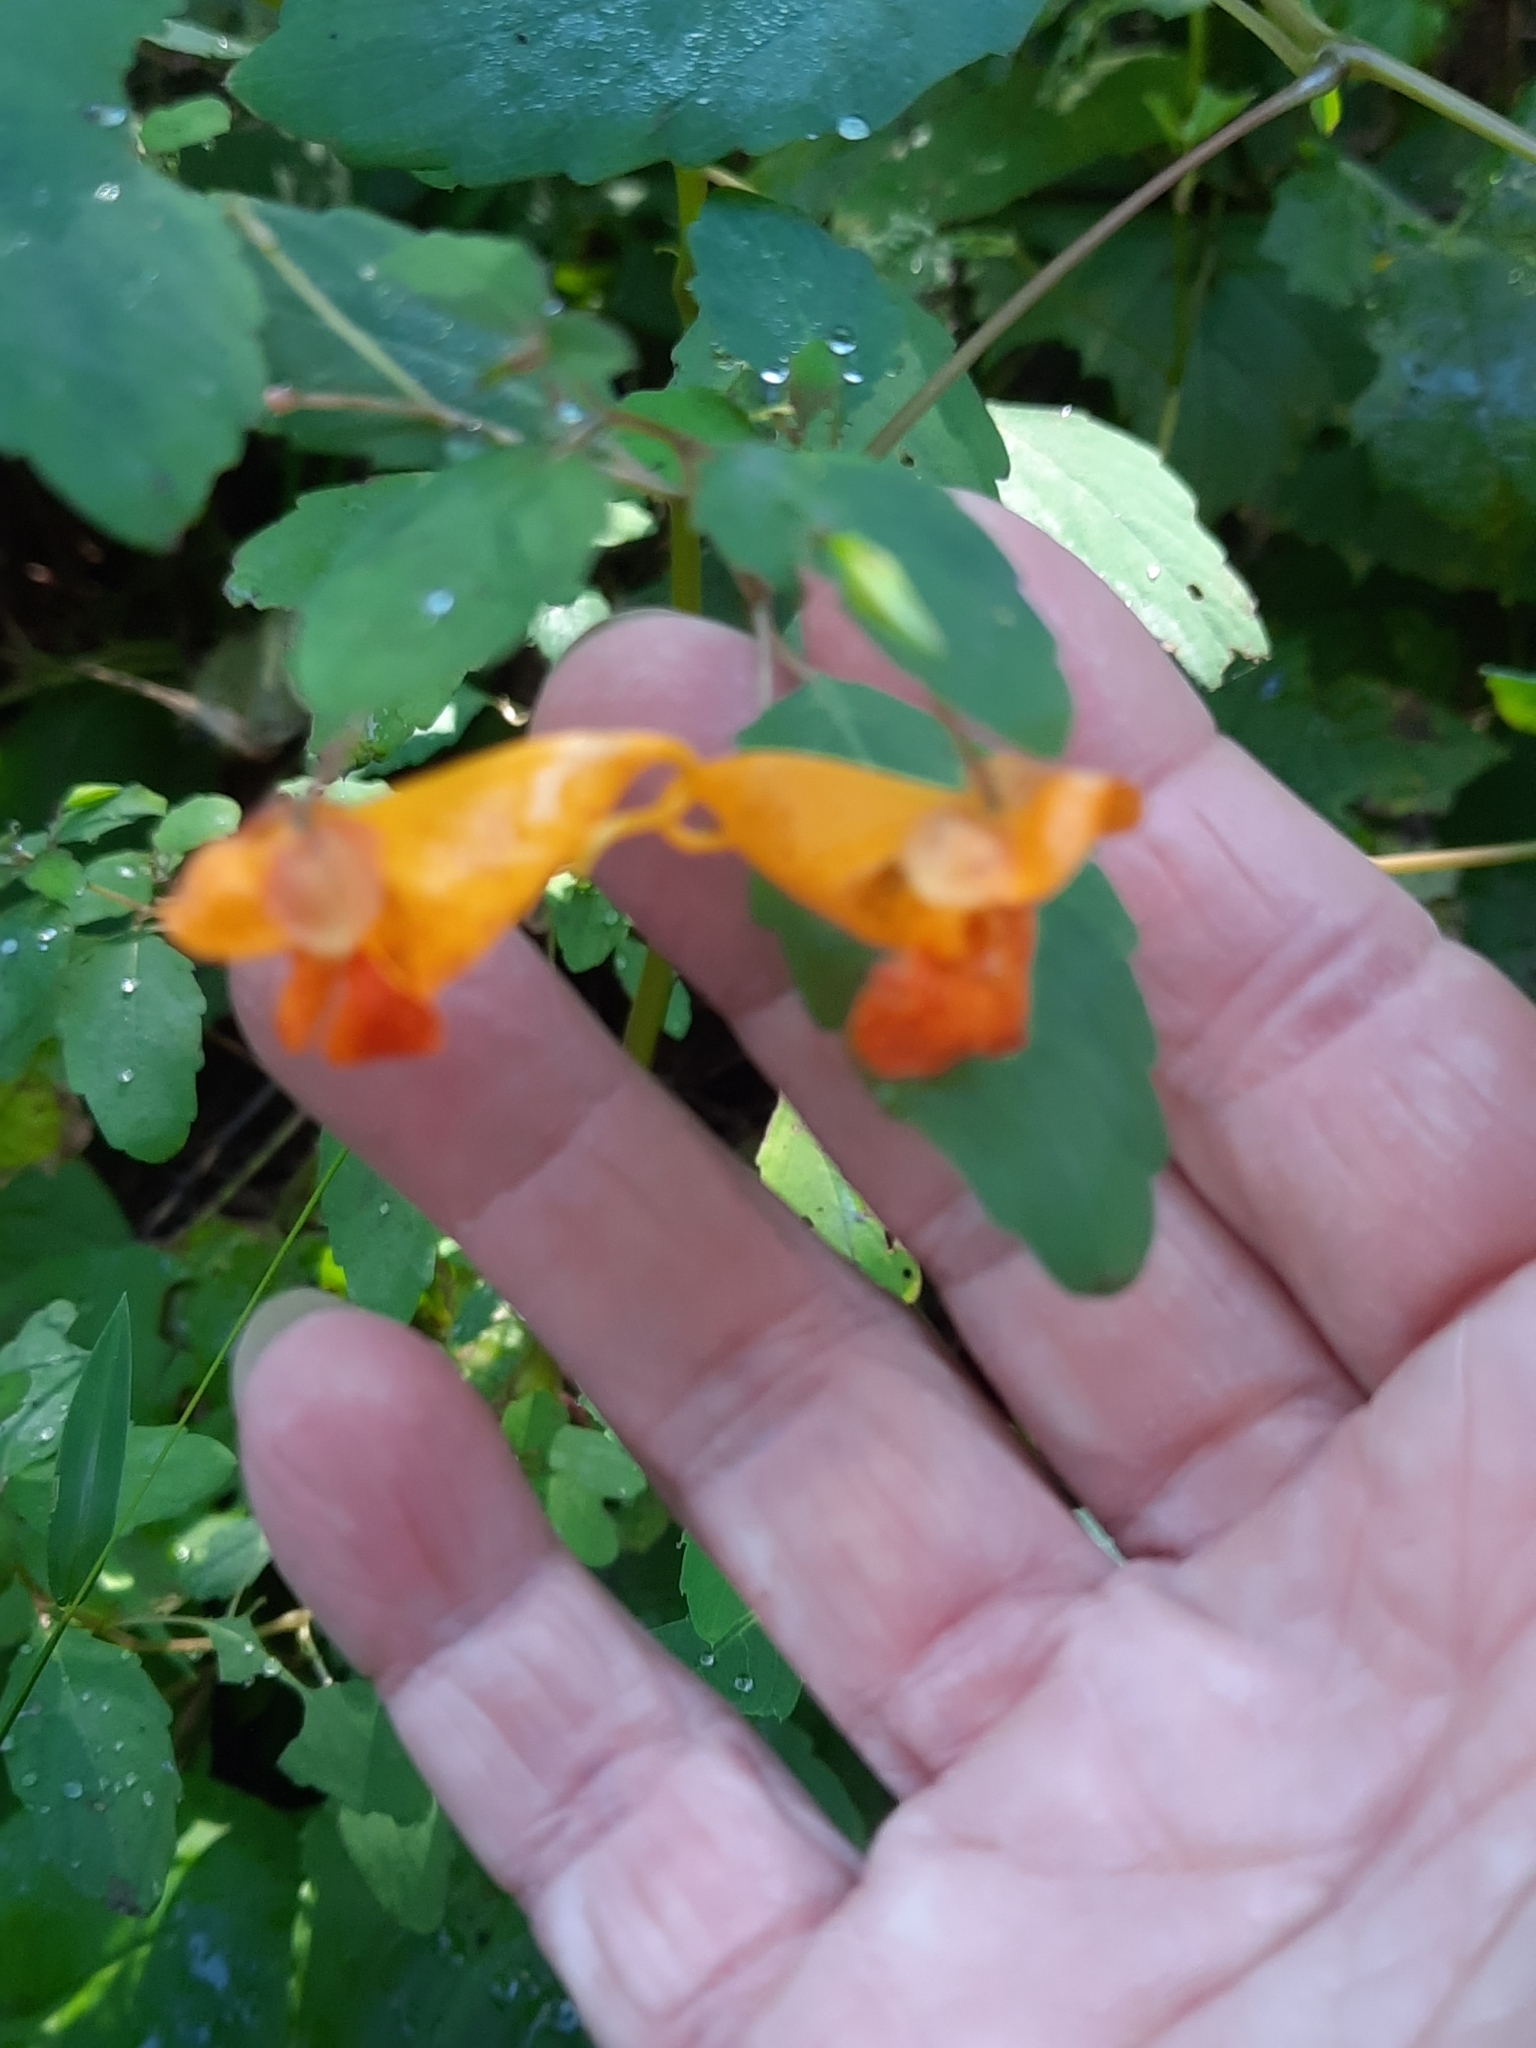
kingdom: Plantae
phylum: Tracheophyta
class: Magnoliopsida
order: Ericales
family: Balsaminaceae
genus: Impatiens
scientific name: Impatiens capensis
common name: Orange balsam
